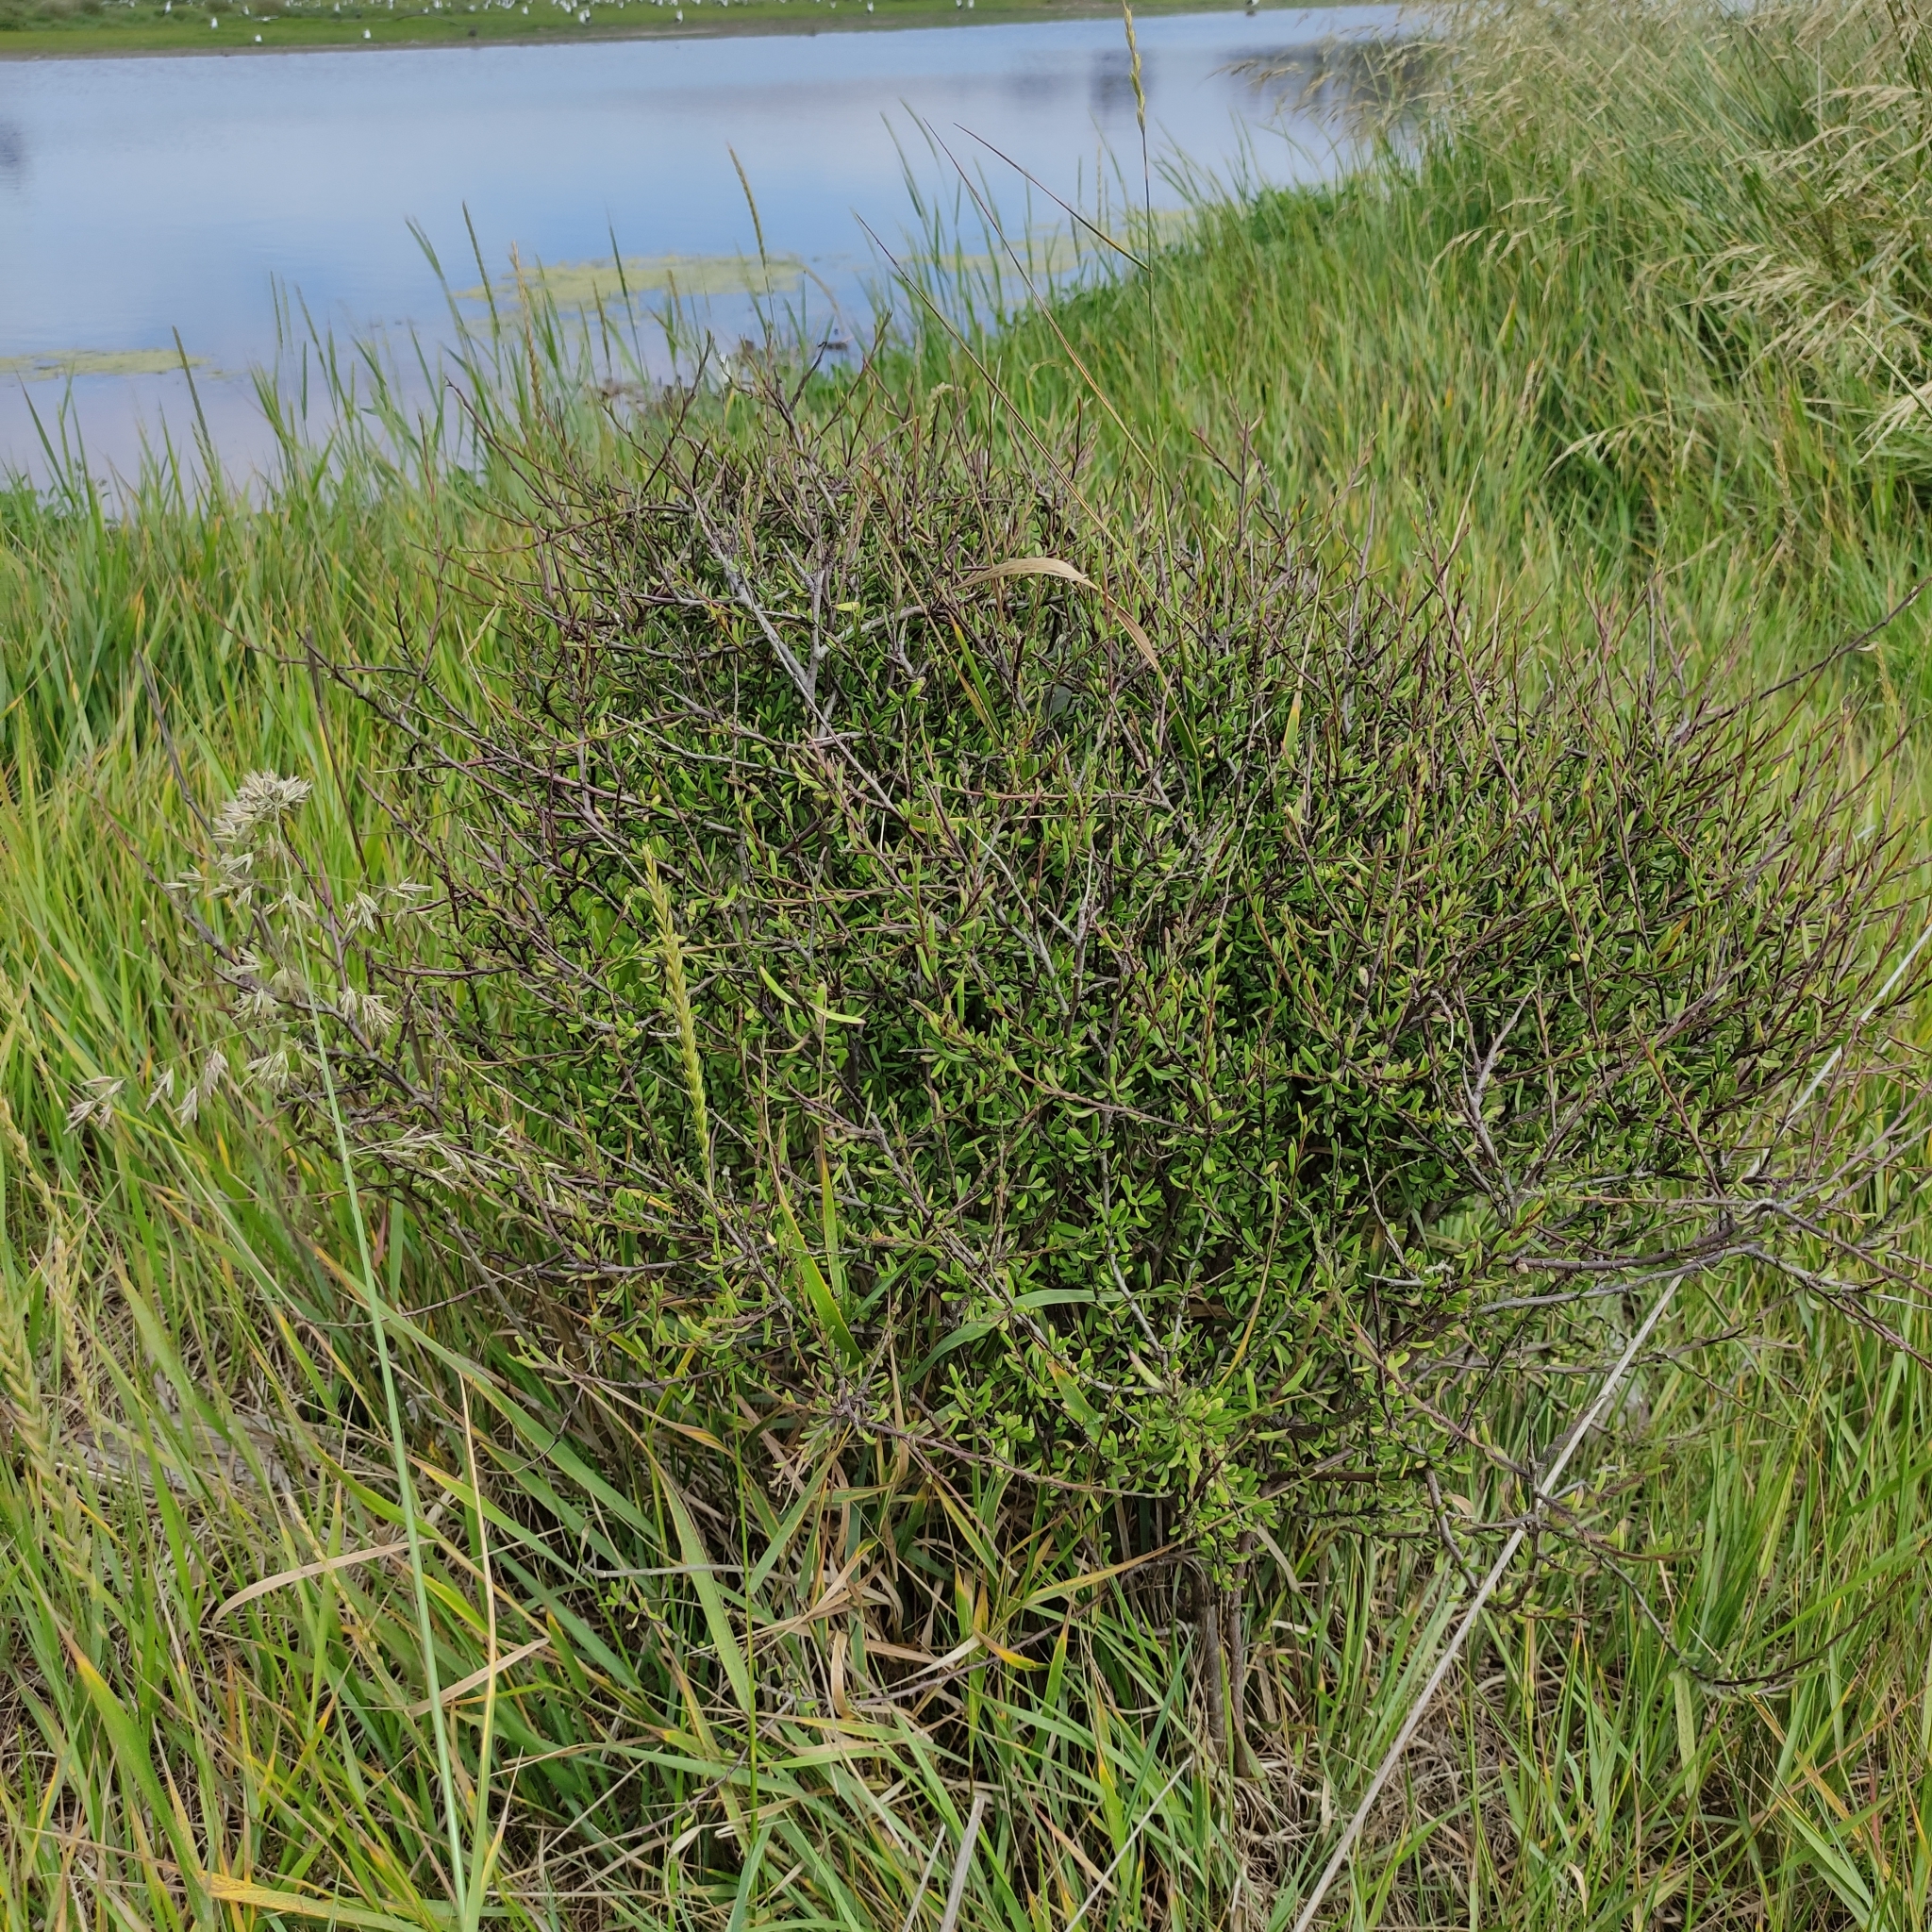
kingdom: Plantae
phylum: Tracheophyta
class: Magnoliopsida
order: Malvales
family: Malvaceae
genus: Plagianthus
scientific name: Plagianthus divaricatus
